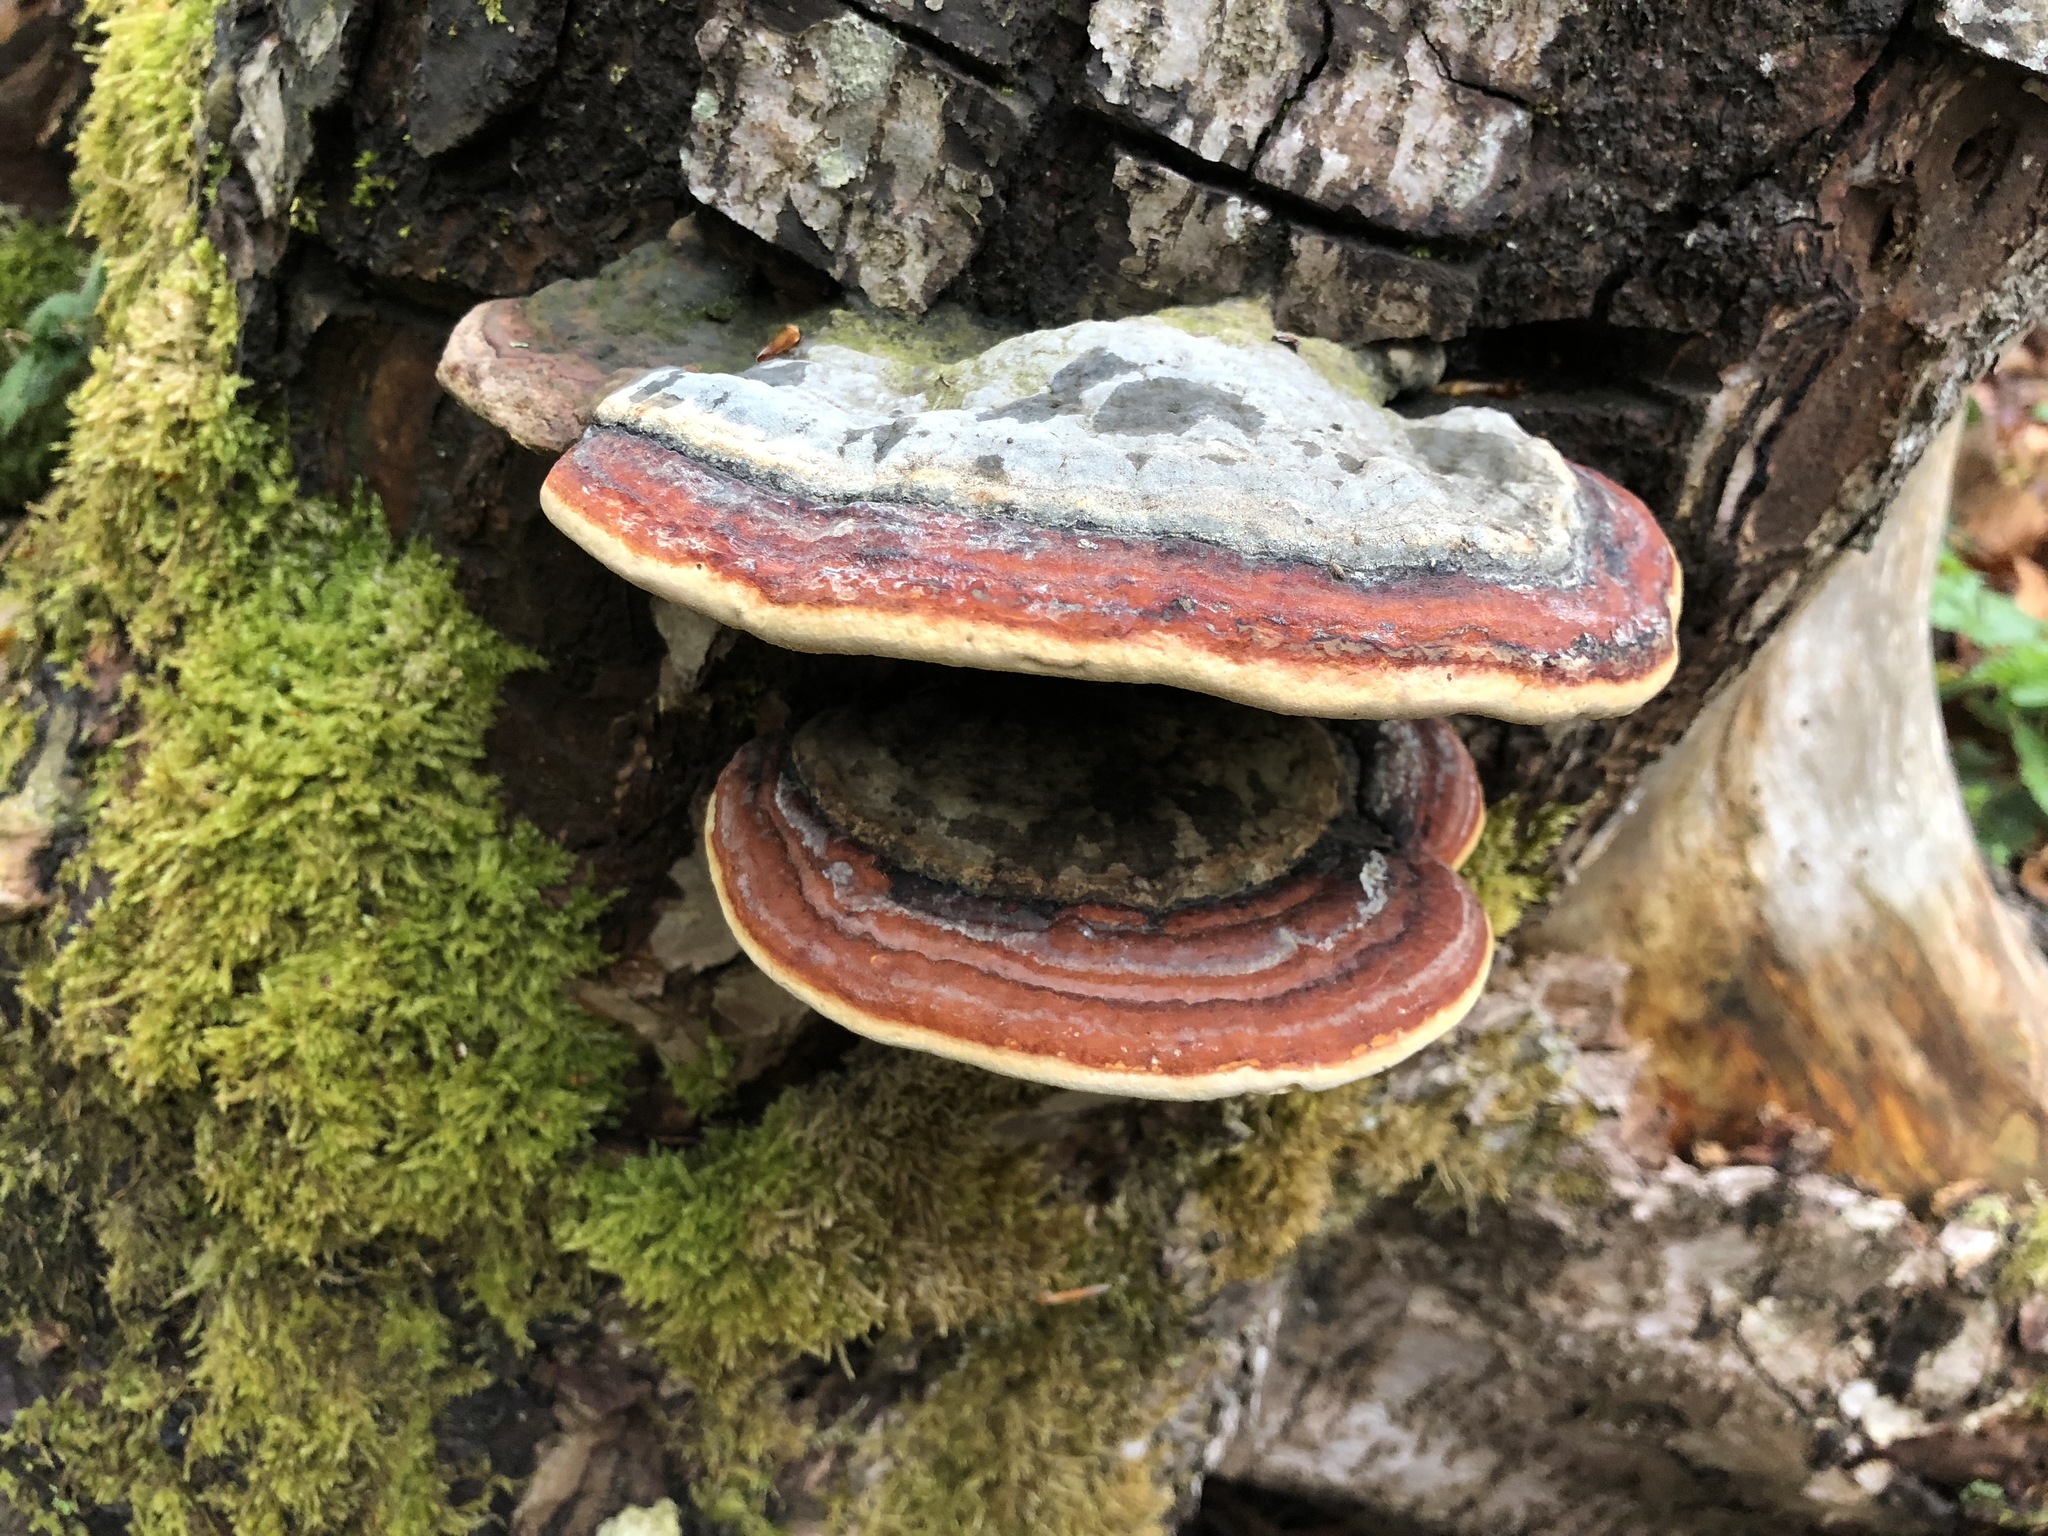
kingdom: Fungi
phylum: Basidiomycota
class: Agaricomycetes
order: Polyporales
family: Fomitopsidaceae
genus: Fomitopsis
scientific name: Fomitopsis pinicola
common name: Red-belted bracket
